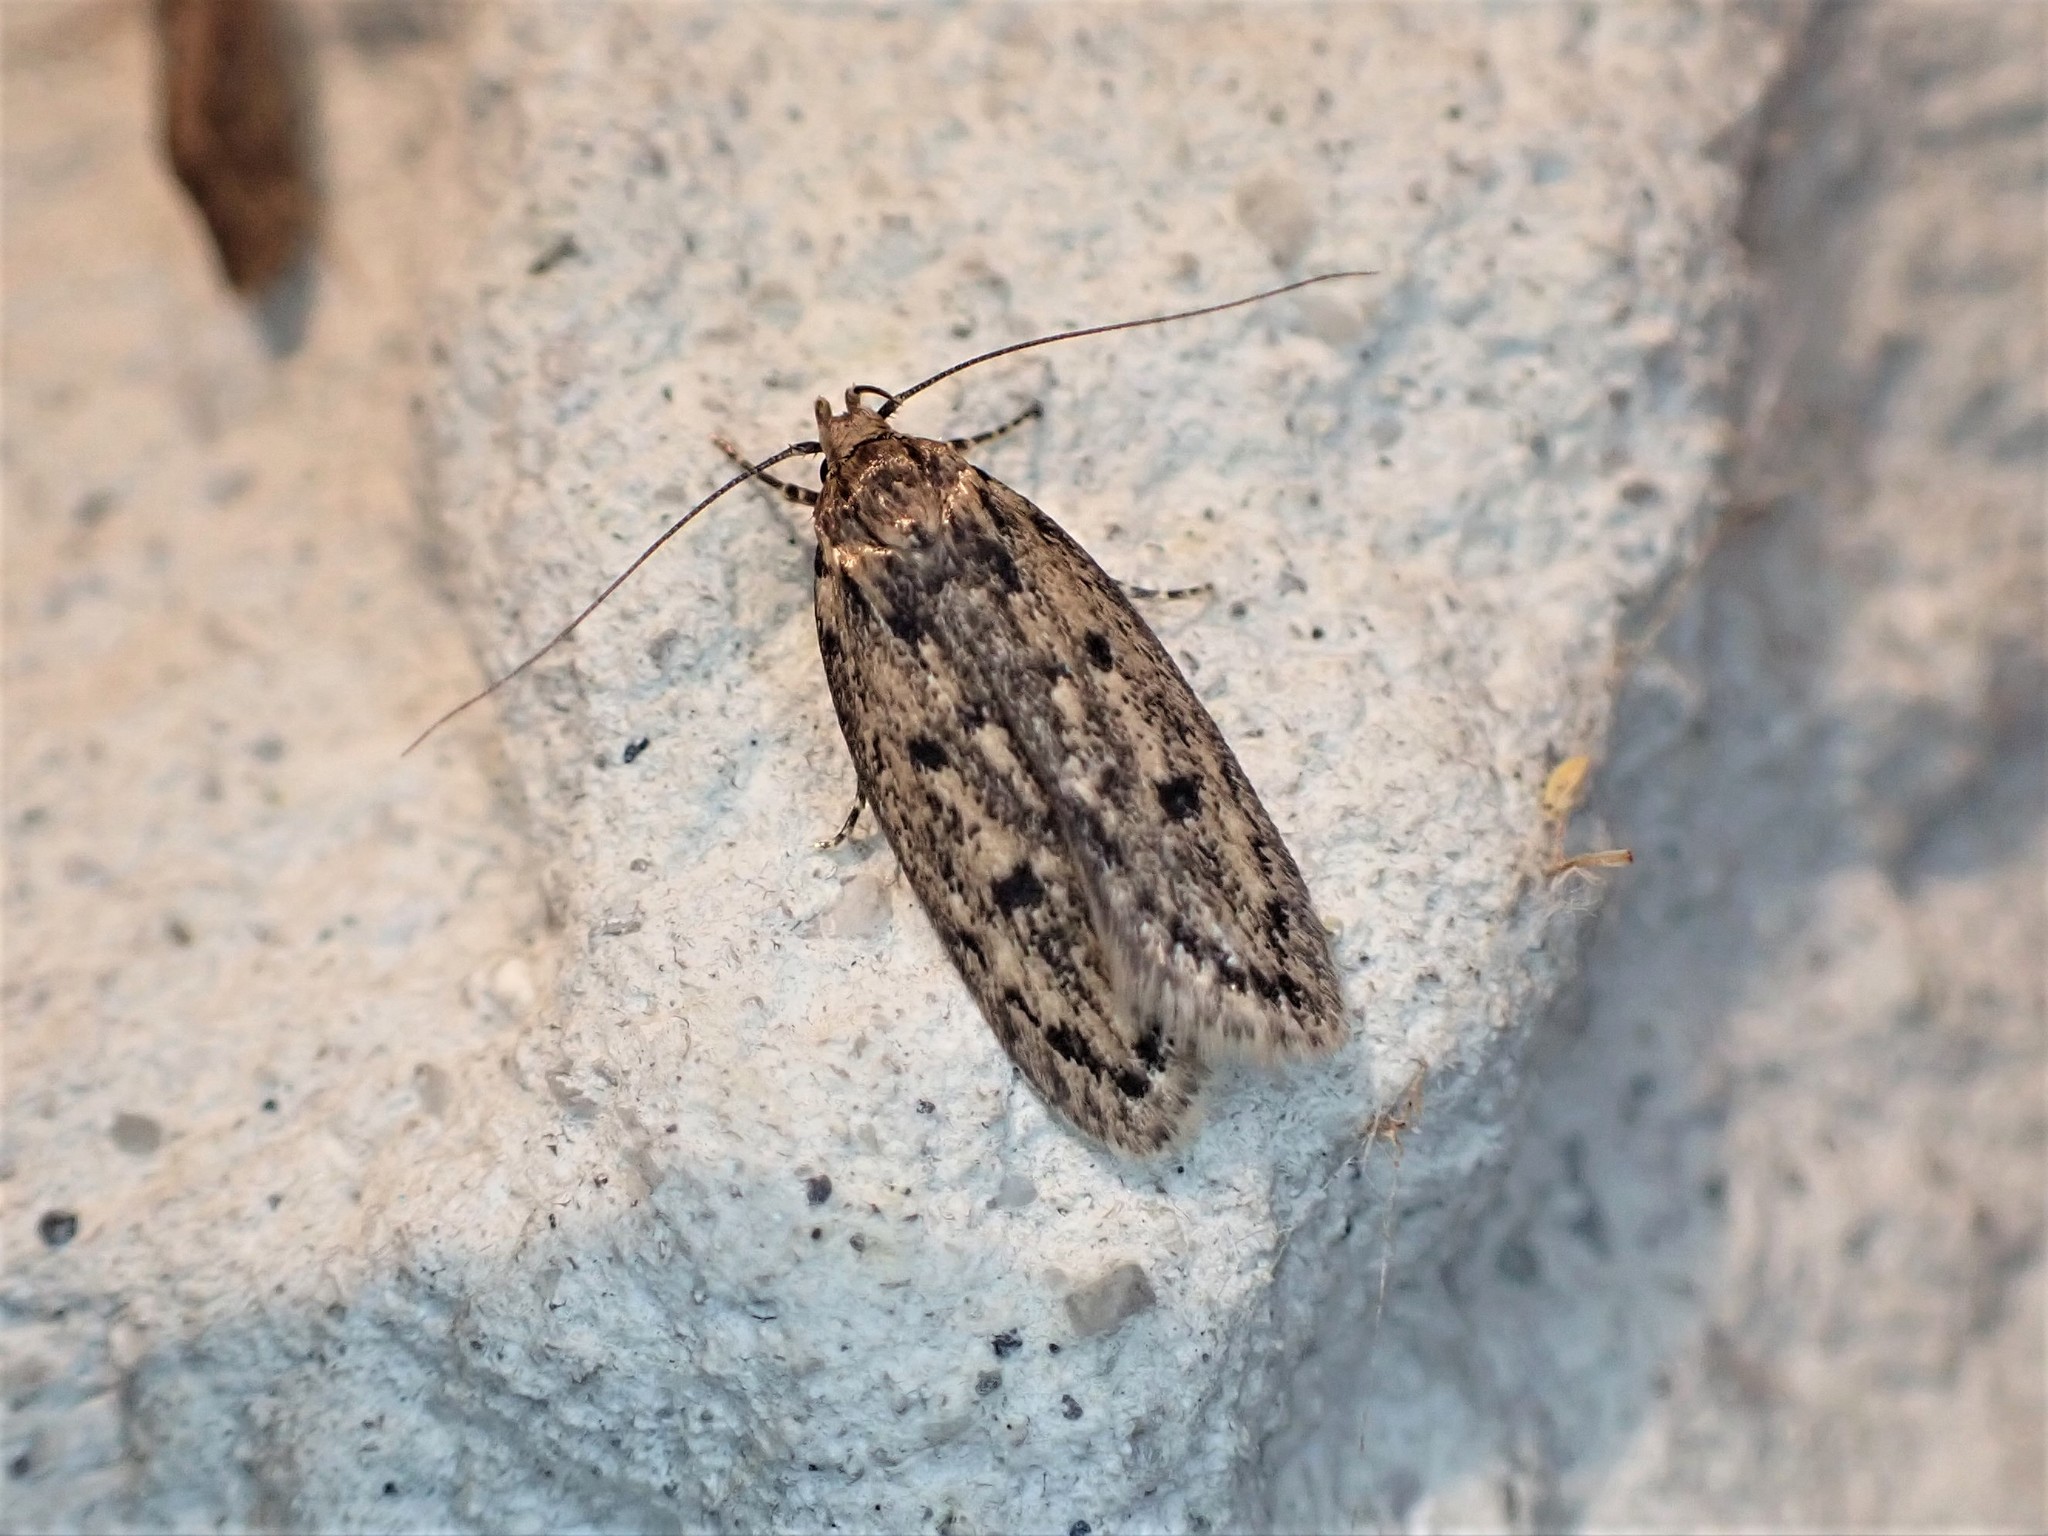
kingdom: Animalia
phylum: Arthropoda
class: Insecta
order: Lepidoptera
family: Oecophoridae
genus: Hofmannophila
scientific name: Hofmannophila pseudospretella
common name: Brown house moth
